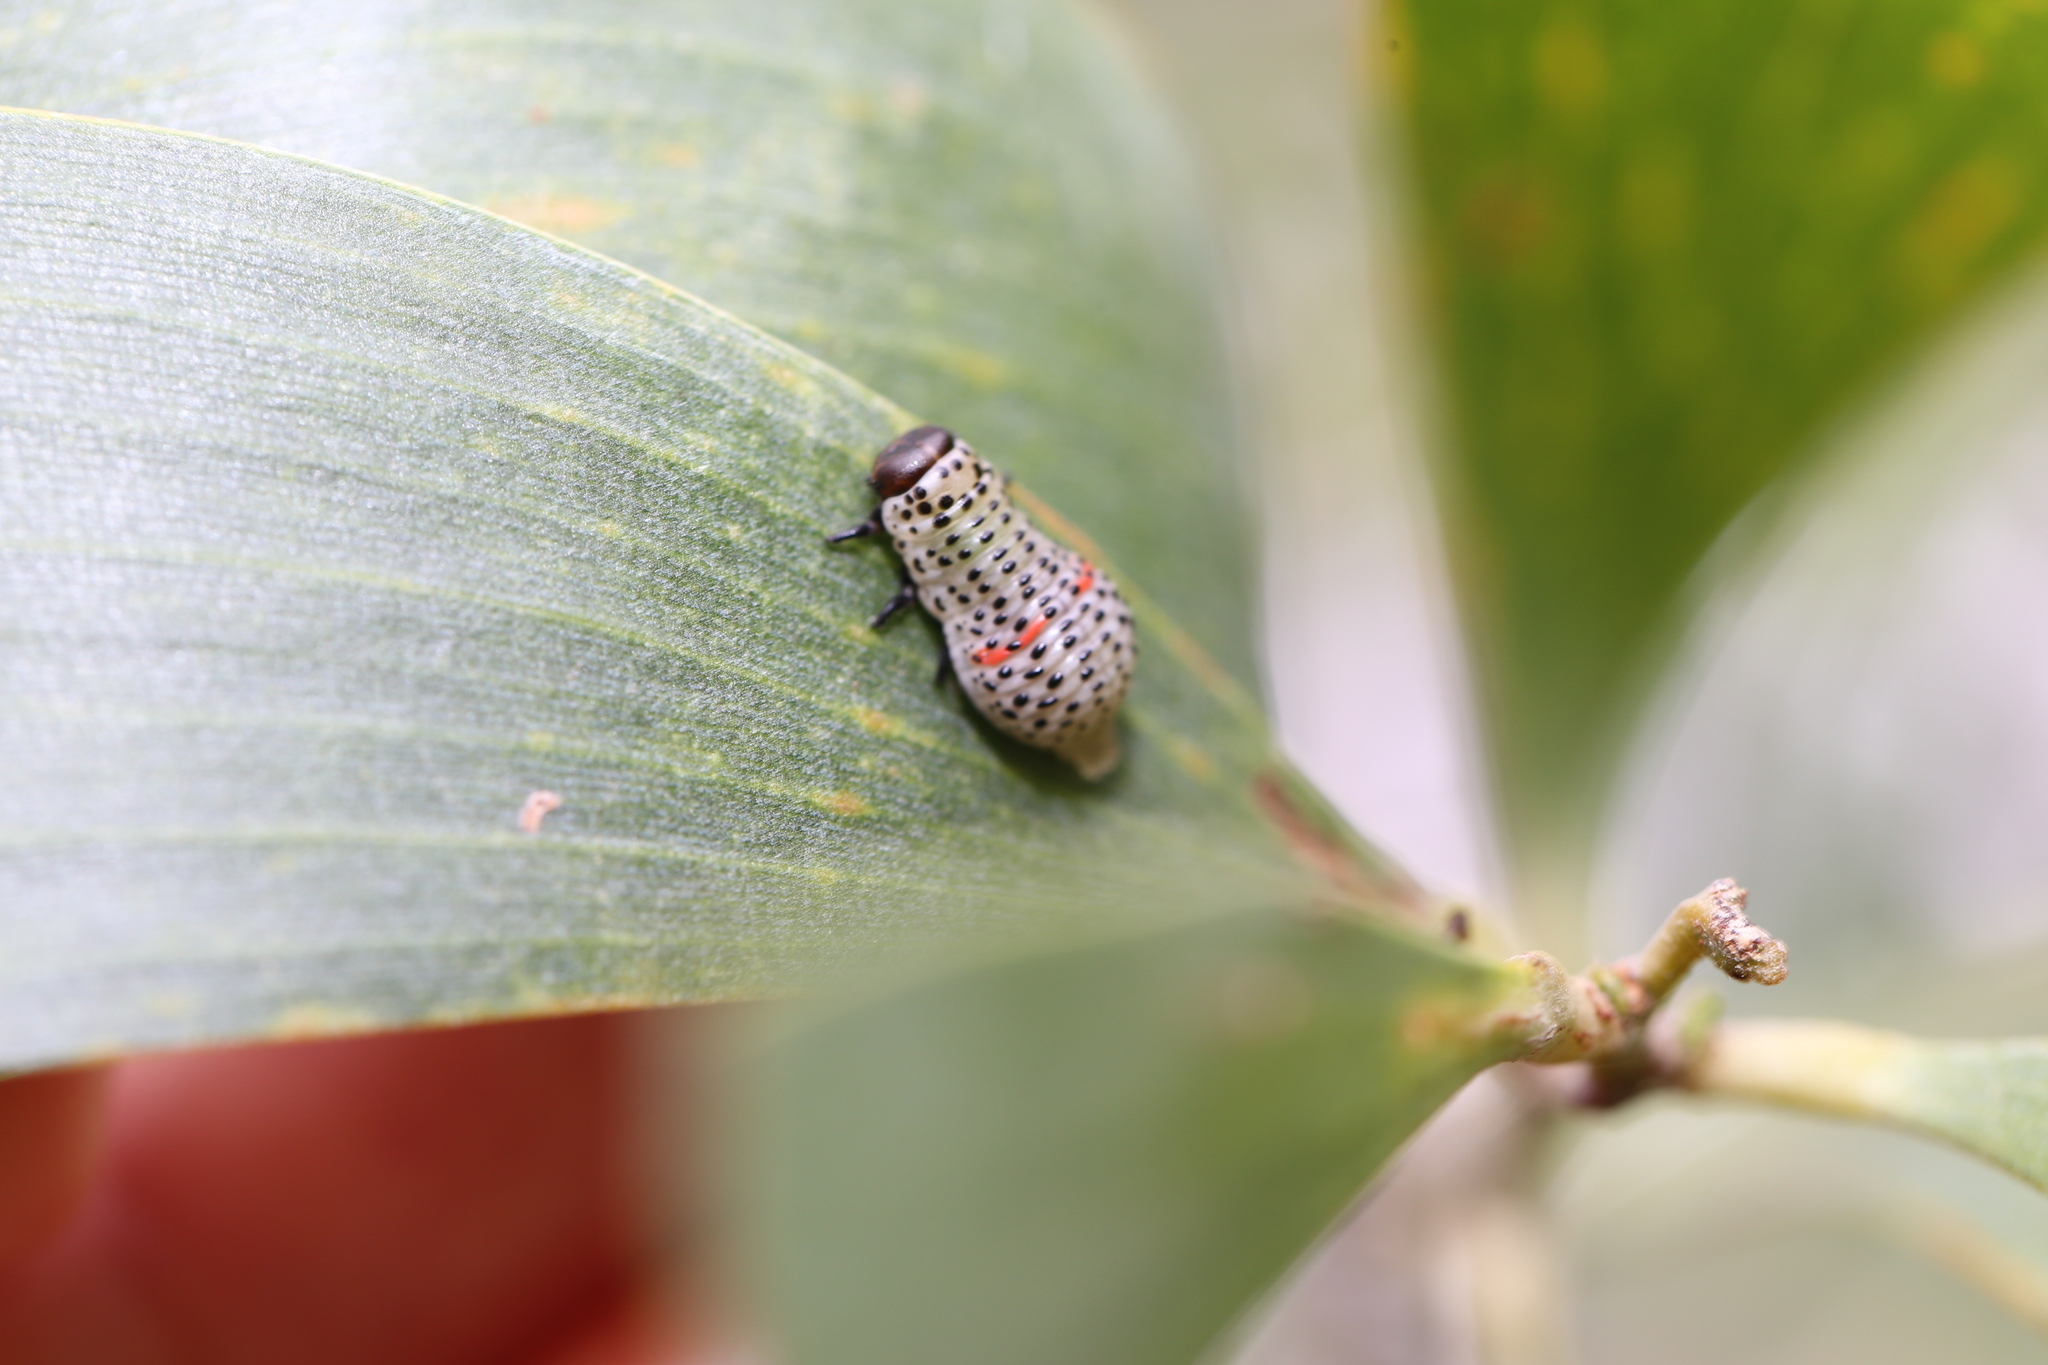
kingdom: Animalia
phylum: Arthropoda
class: Insecta
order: Coleoptera
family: Chrysomelidae
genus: Dicranosterna
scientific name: Dicranosterna
